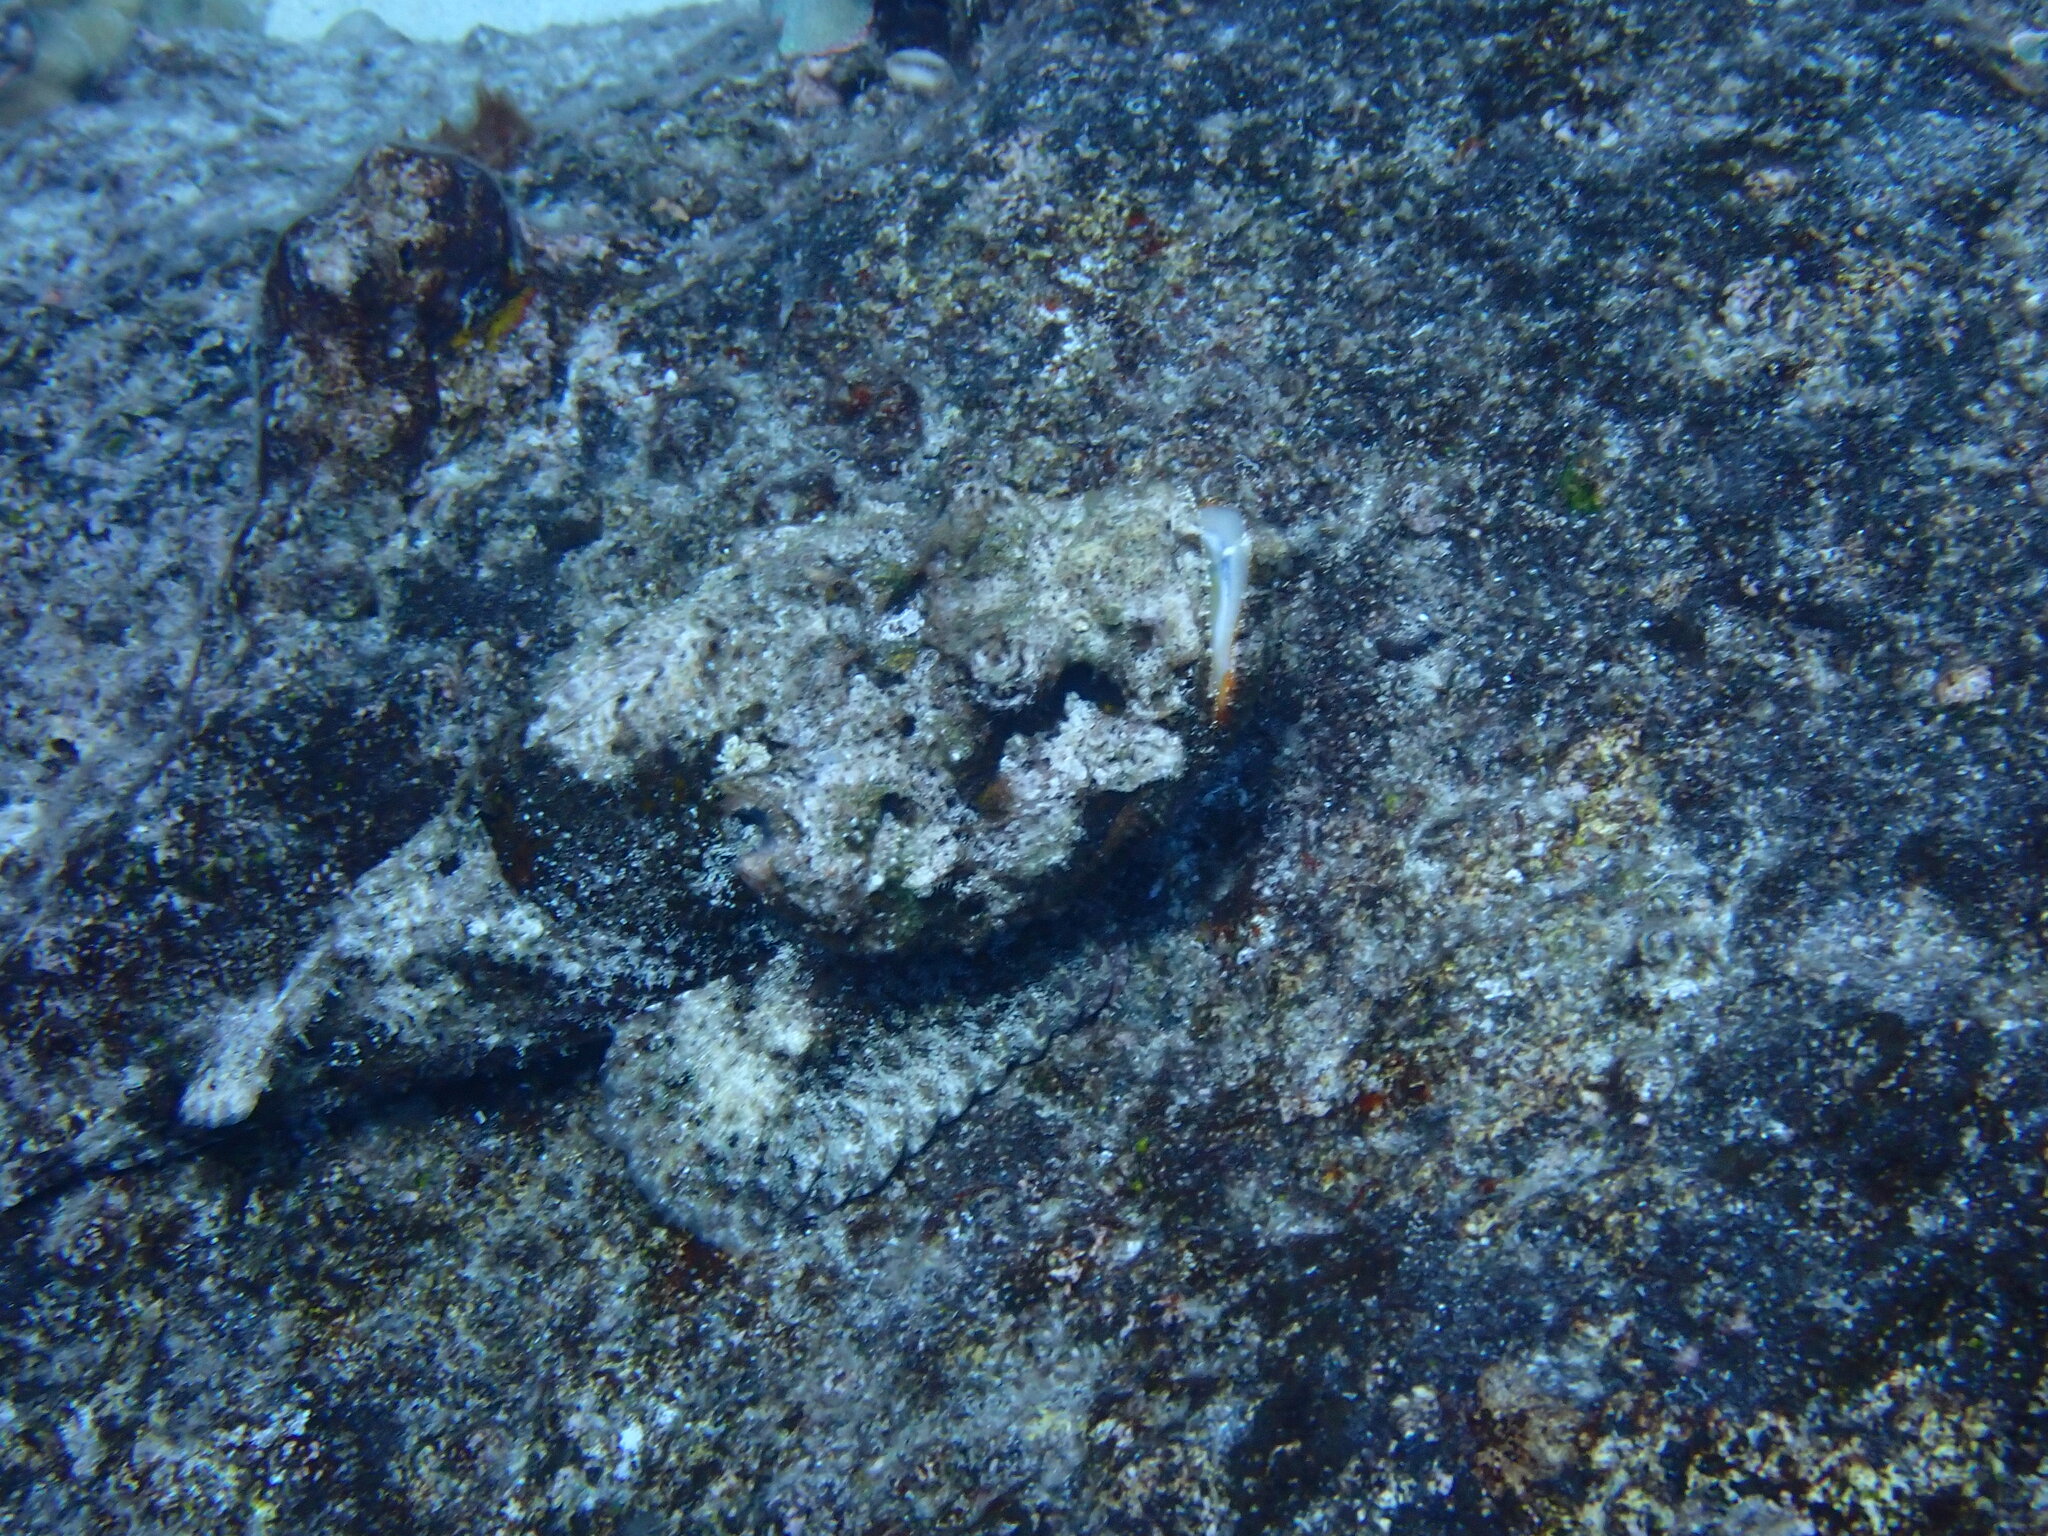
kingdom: Animalia
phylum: Chordata
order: Scorpaeniformes
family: Scorpaenidae
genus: Scorpaenopsis
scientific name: Scorpaenopsis diabolus
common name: False stonefish
